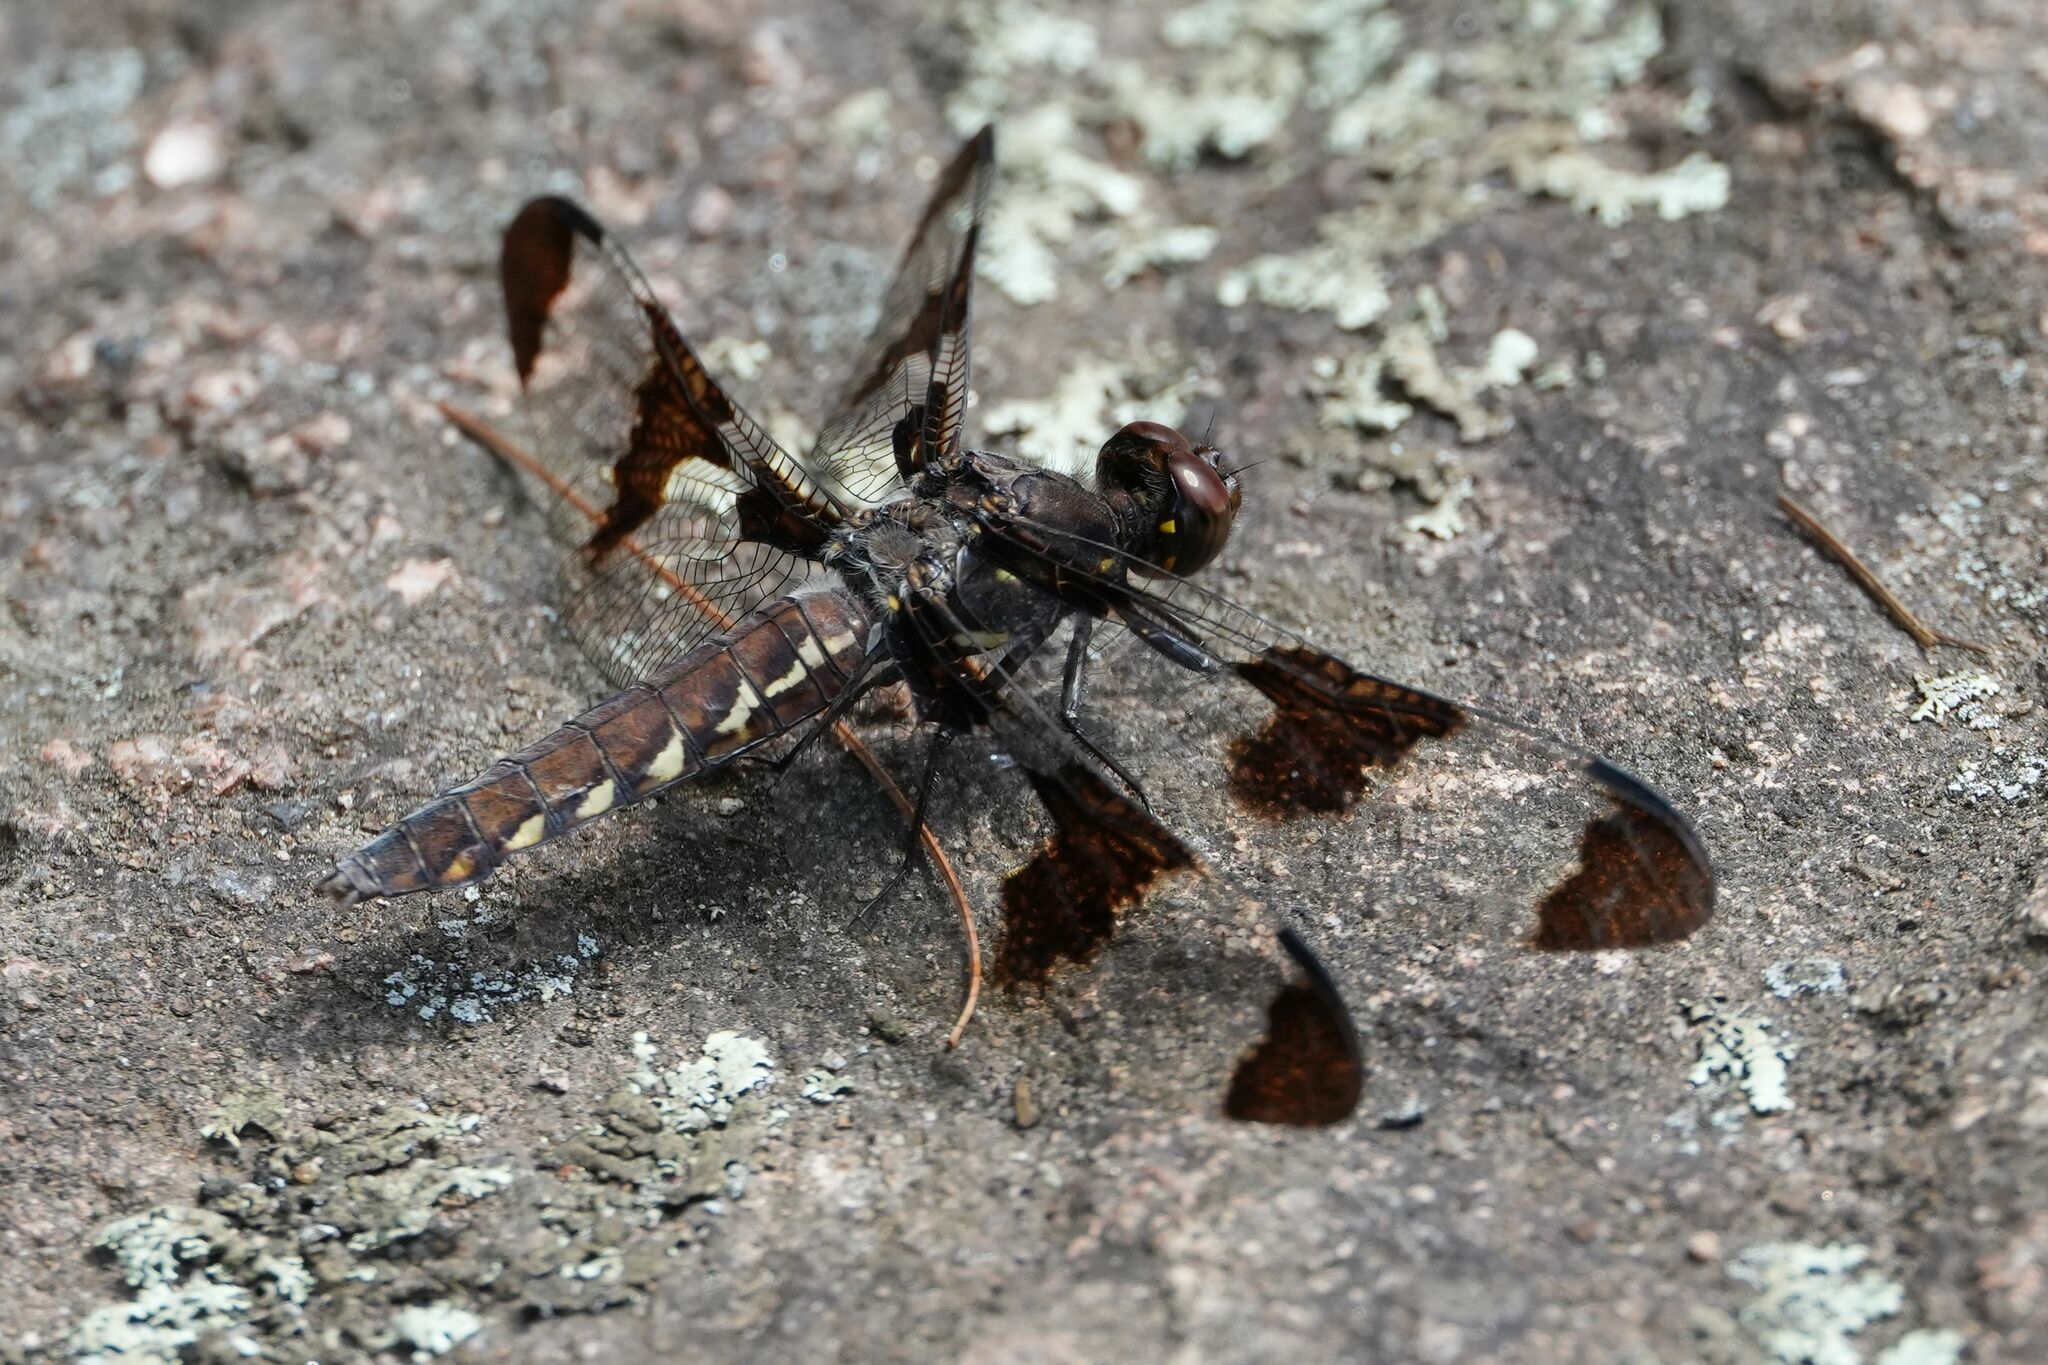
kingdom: Animalia
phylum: Arthropoda
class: Insecta
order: Odonata
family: Libellulidae
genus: Plathemis
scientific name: Plathemis lydia
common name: Common whitetail
